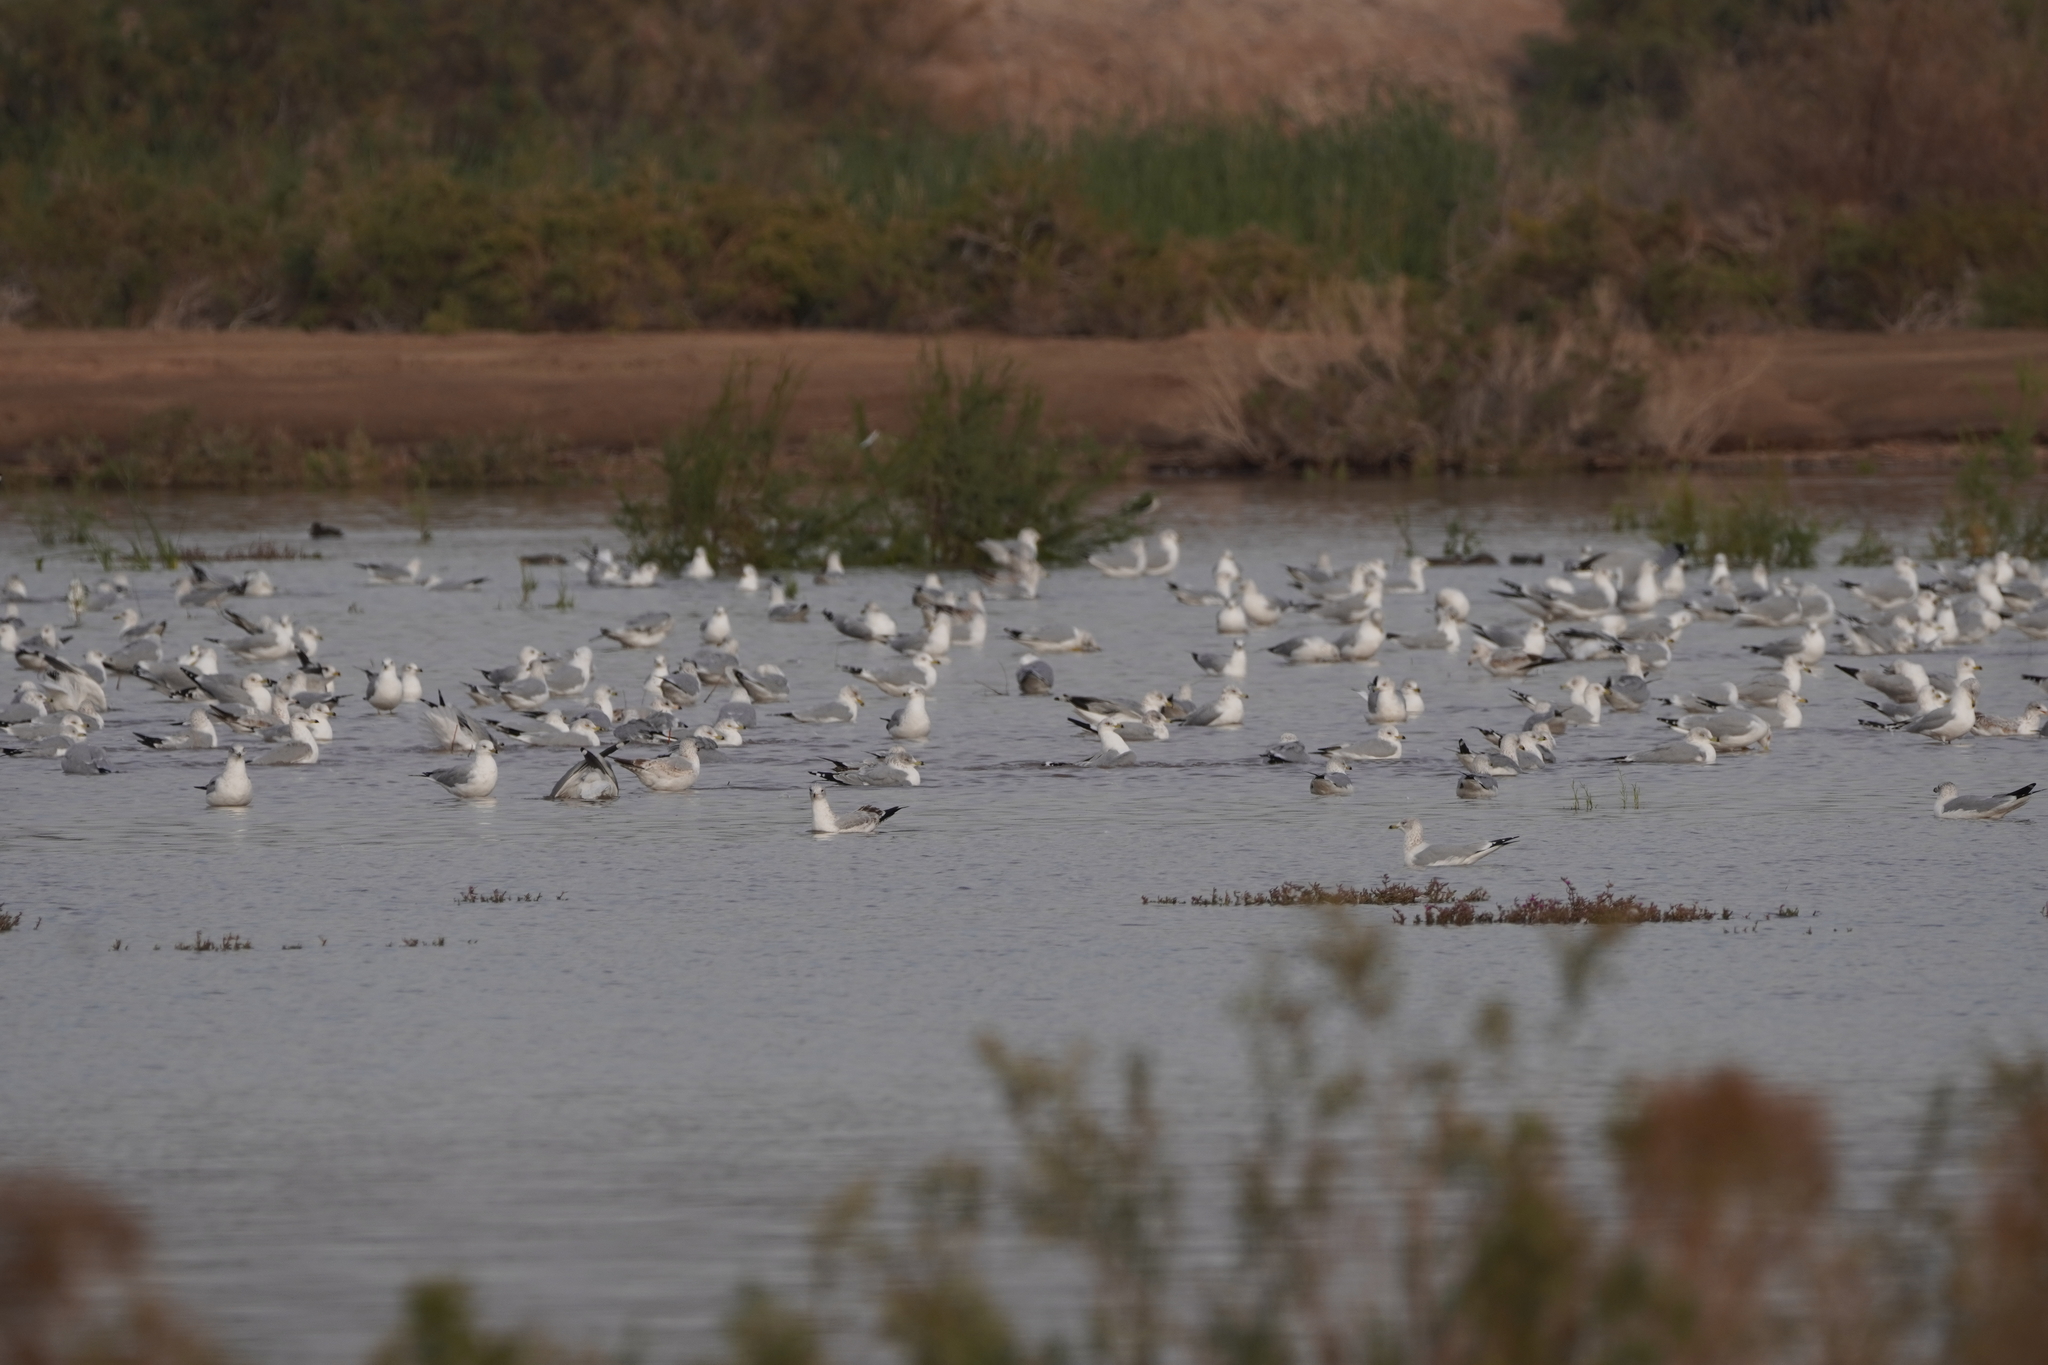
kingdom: Animalia
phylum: Chordata
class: Aves
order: Charadriiformes
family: Laridae
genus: Larus
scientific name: Larus delawarensis
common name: Ring-billed gull
